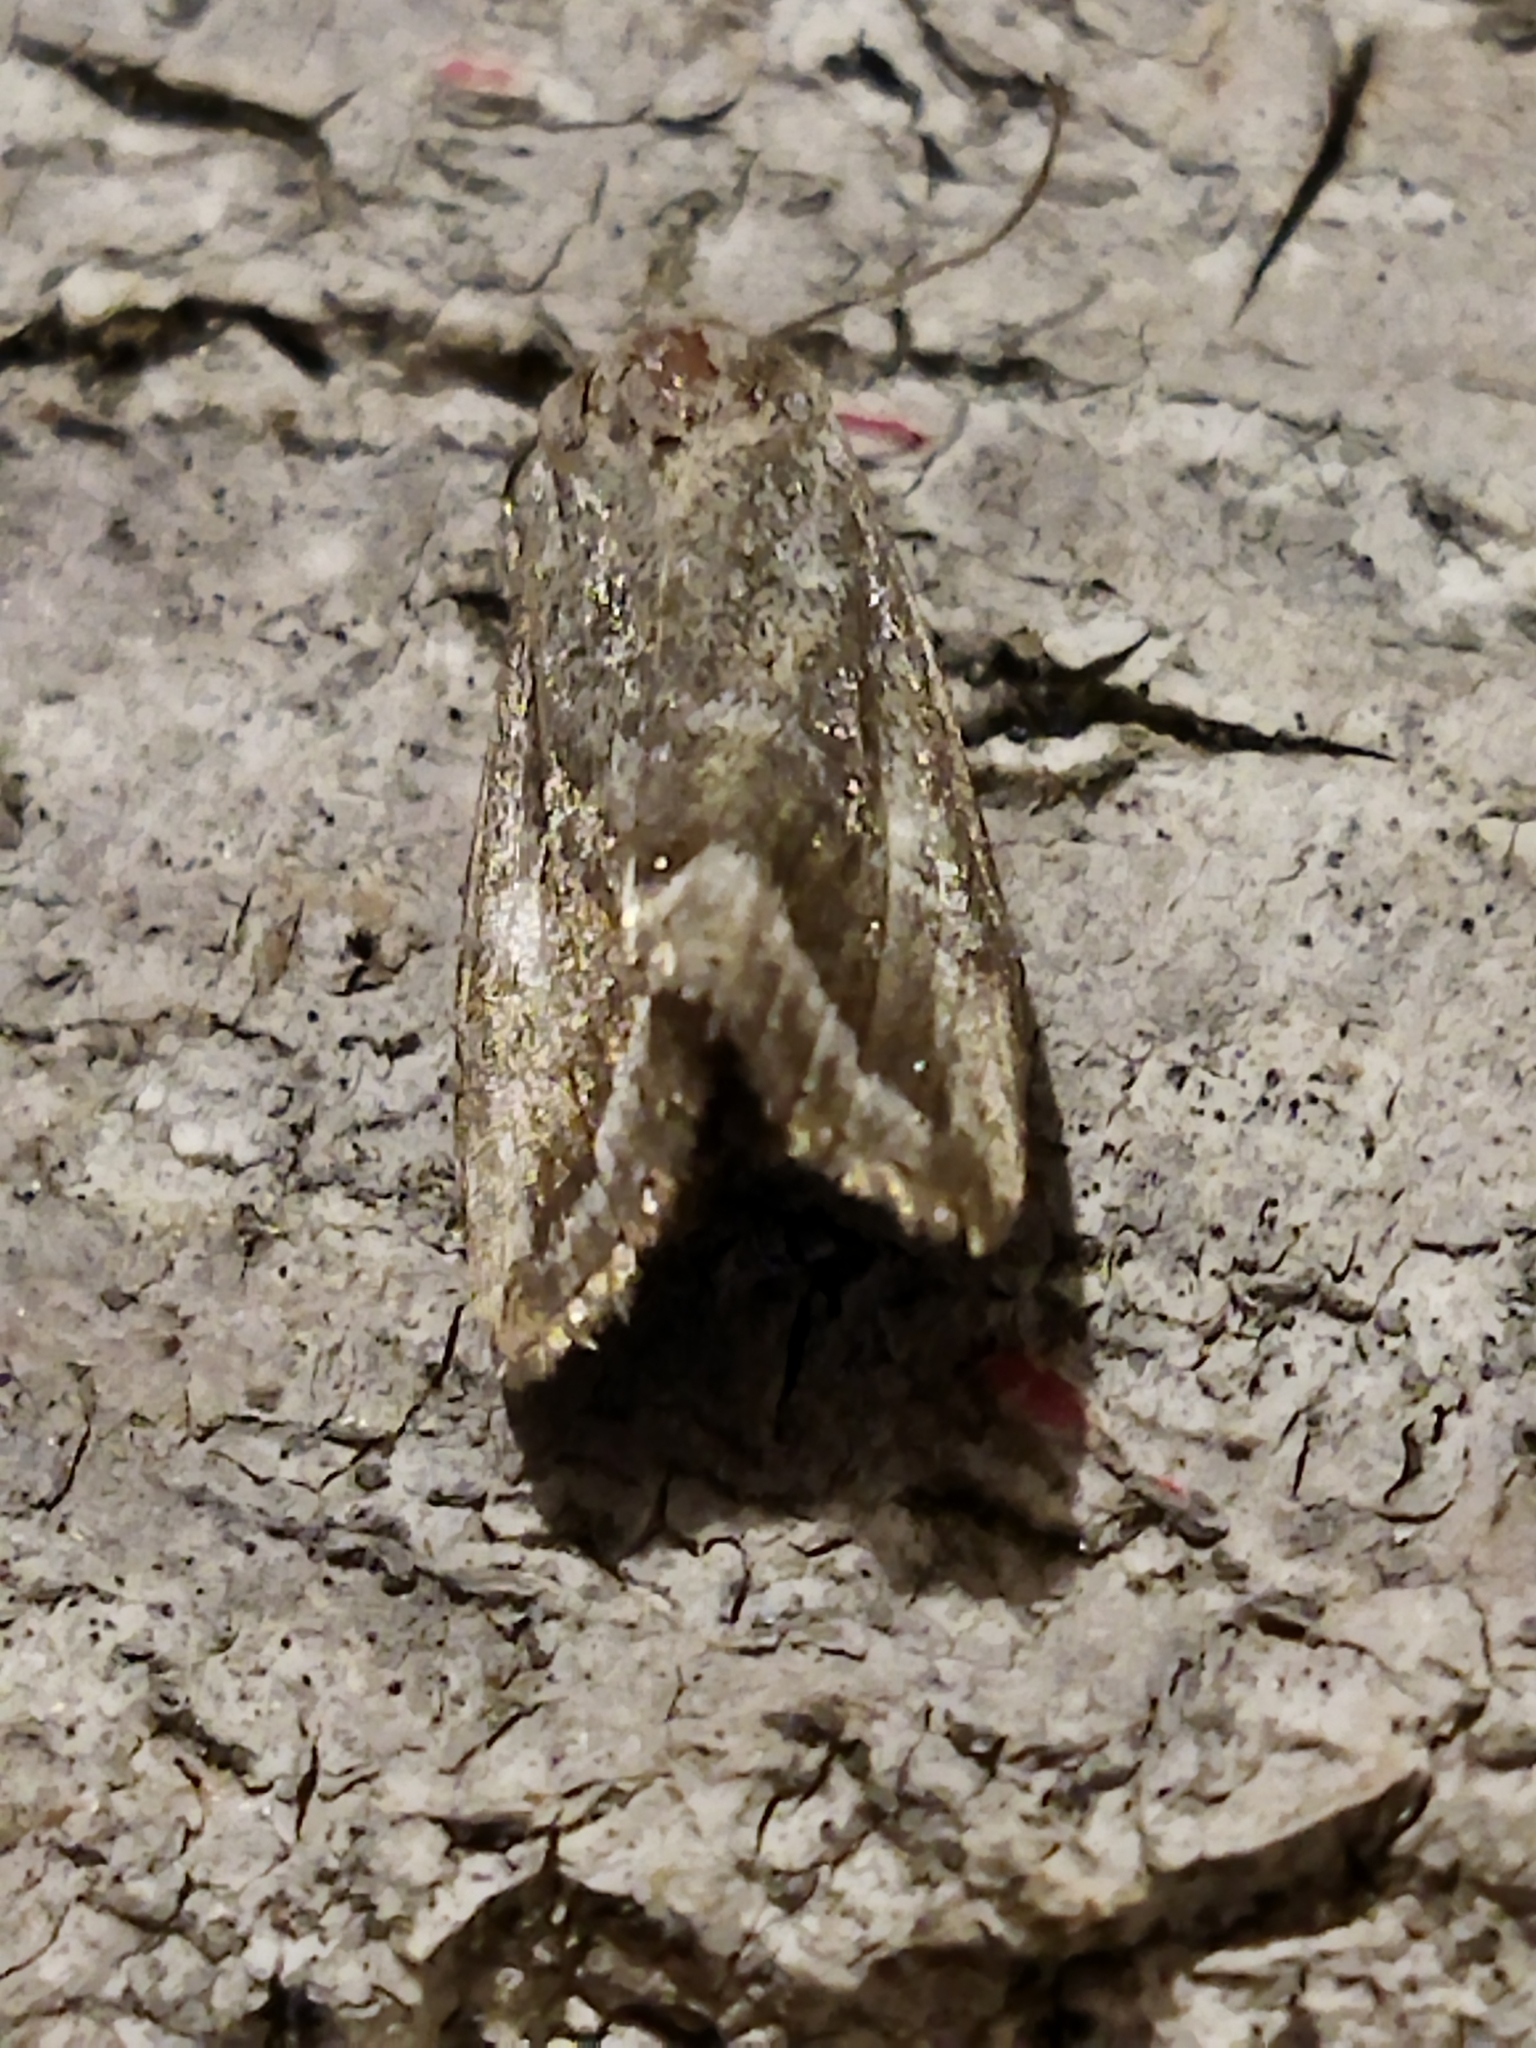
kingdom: Animalia
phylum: Arthropoda
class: Insecta
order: Lepidoptera
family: Noctuidae
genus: Phyllophila
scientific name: Phyllophila obliterata
